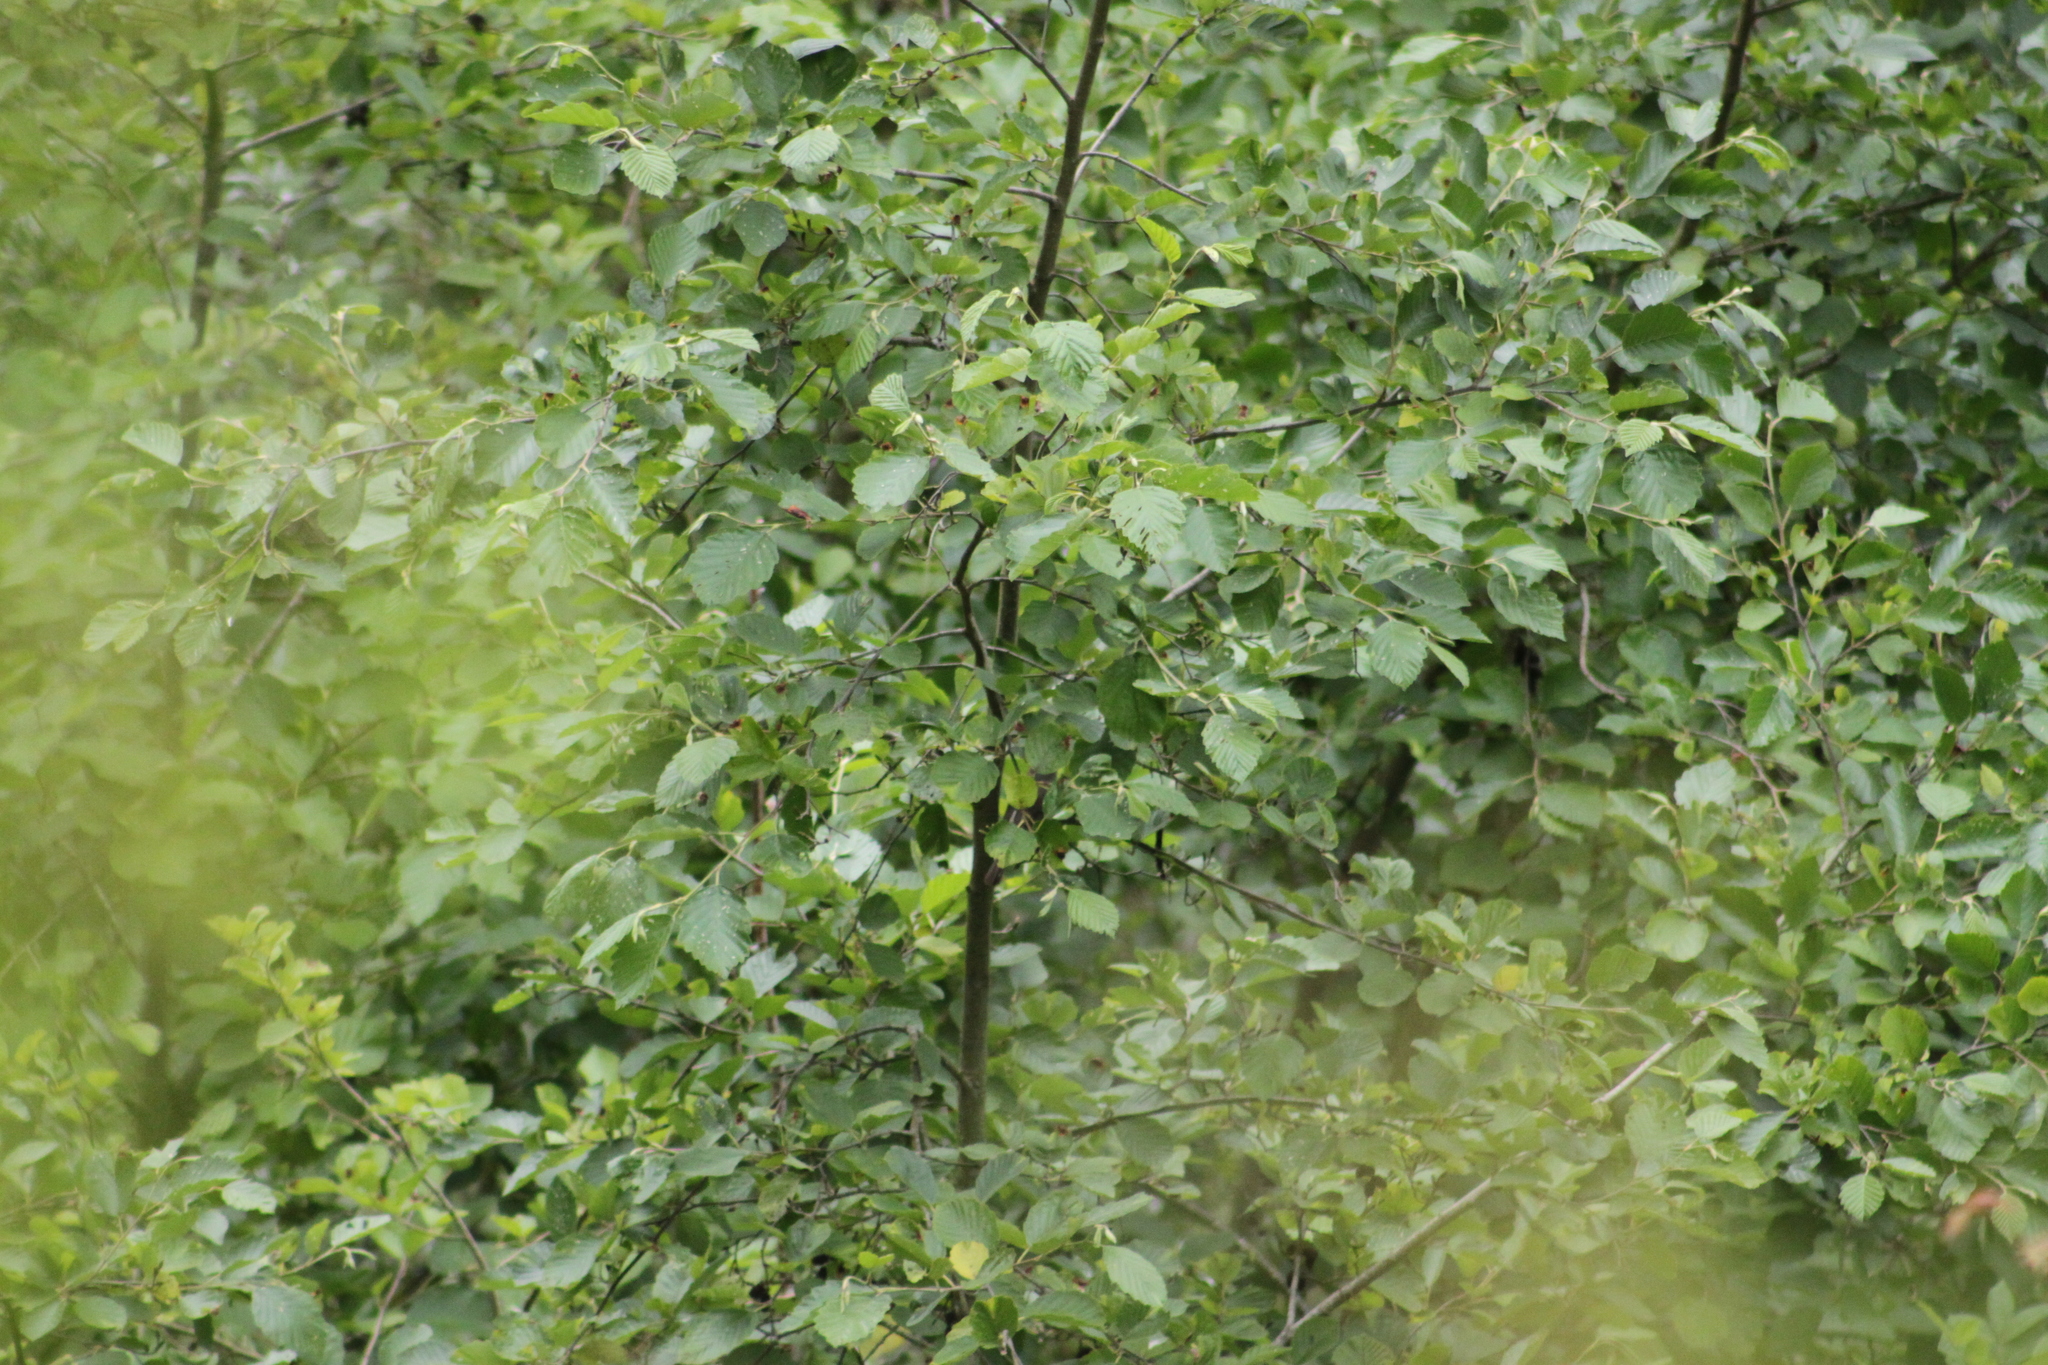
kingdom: Plantae
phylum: Tracheophyta
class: Magnoliopsida
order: Fagales
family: Betulaceae
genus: Alnus
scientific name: Alnus incana
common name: Grey alder
